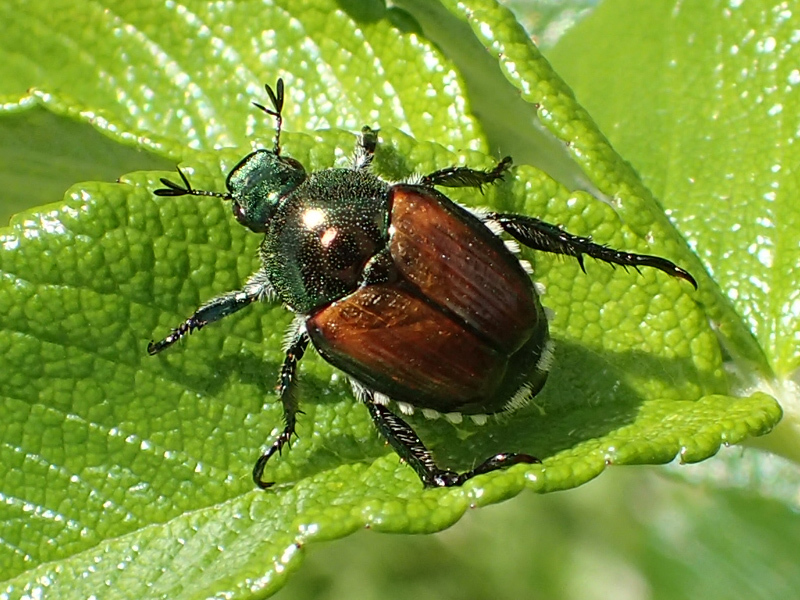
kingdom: Animalia
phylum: Arthropoda
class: Insecta
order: Coleoptera
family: Scarabaeidae
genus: Popillia
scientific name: Popillia japonica
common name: Japanese beetle
